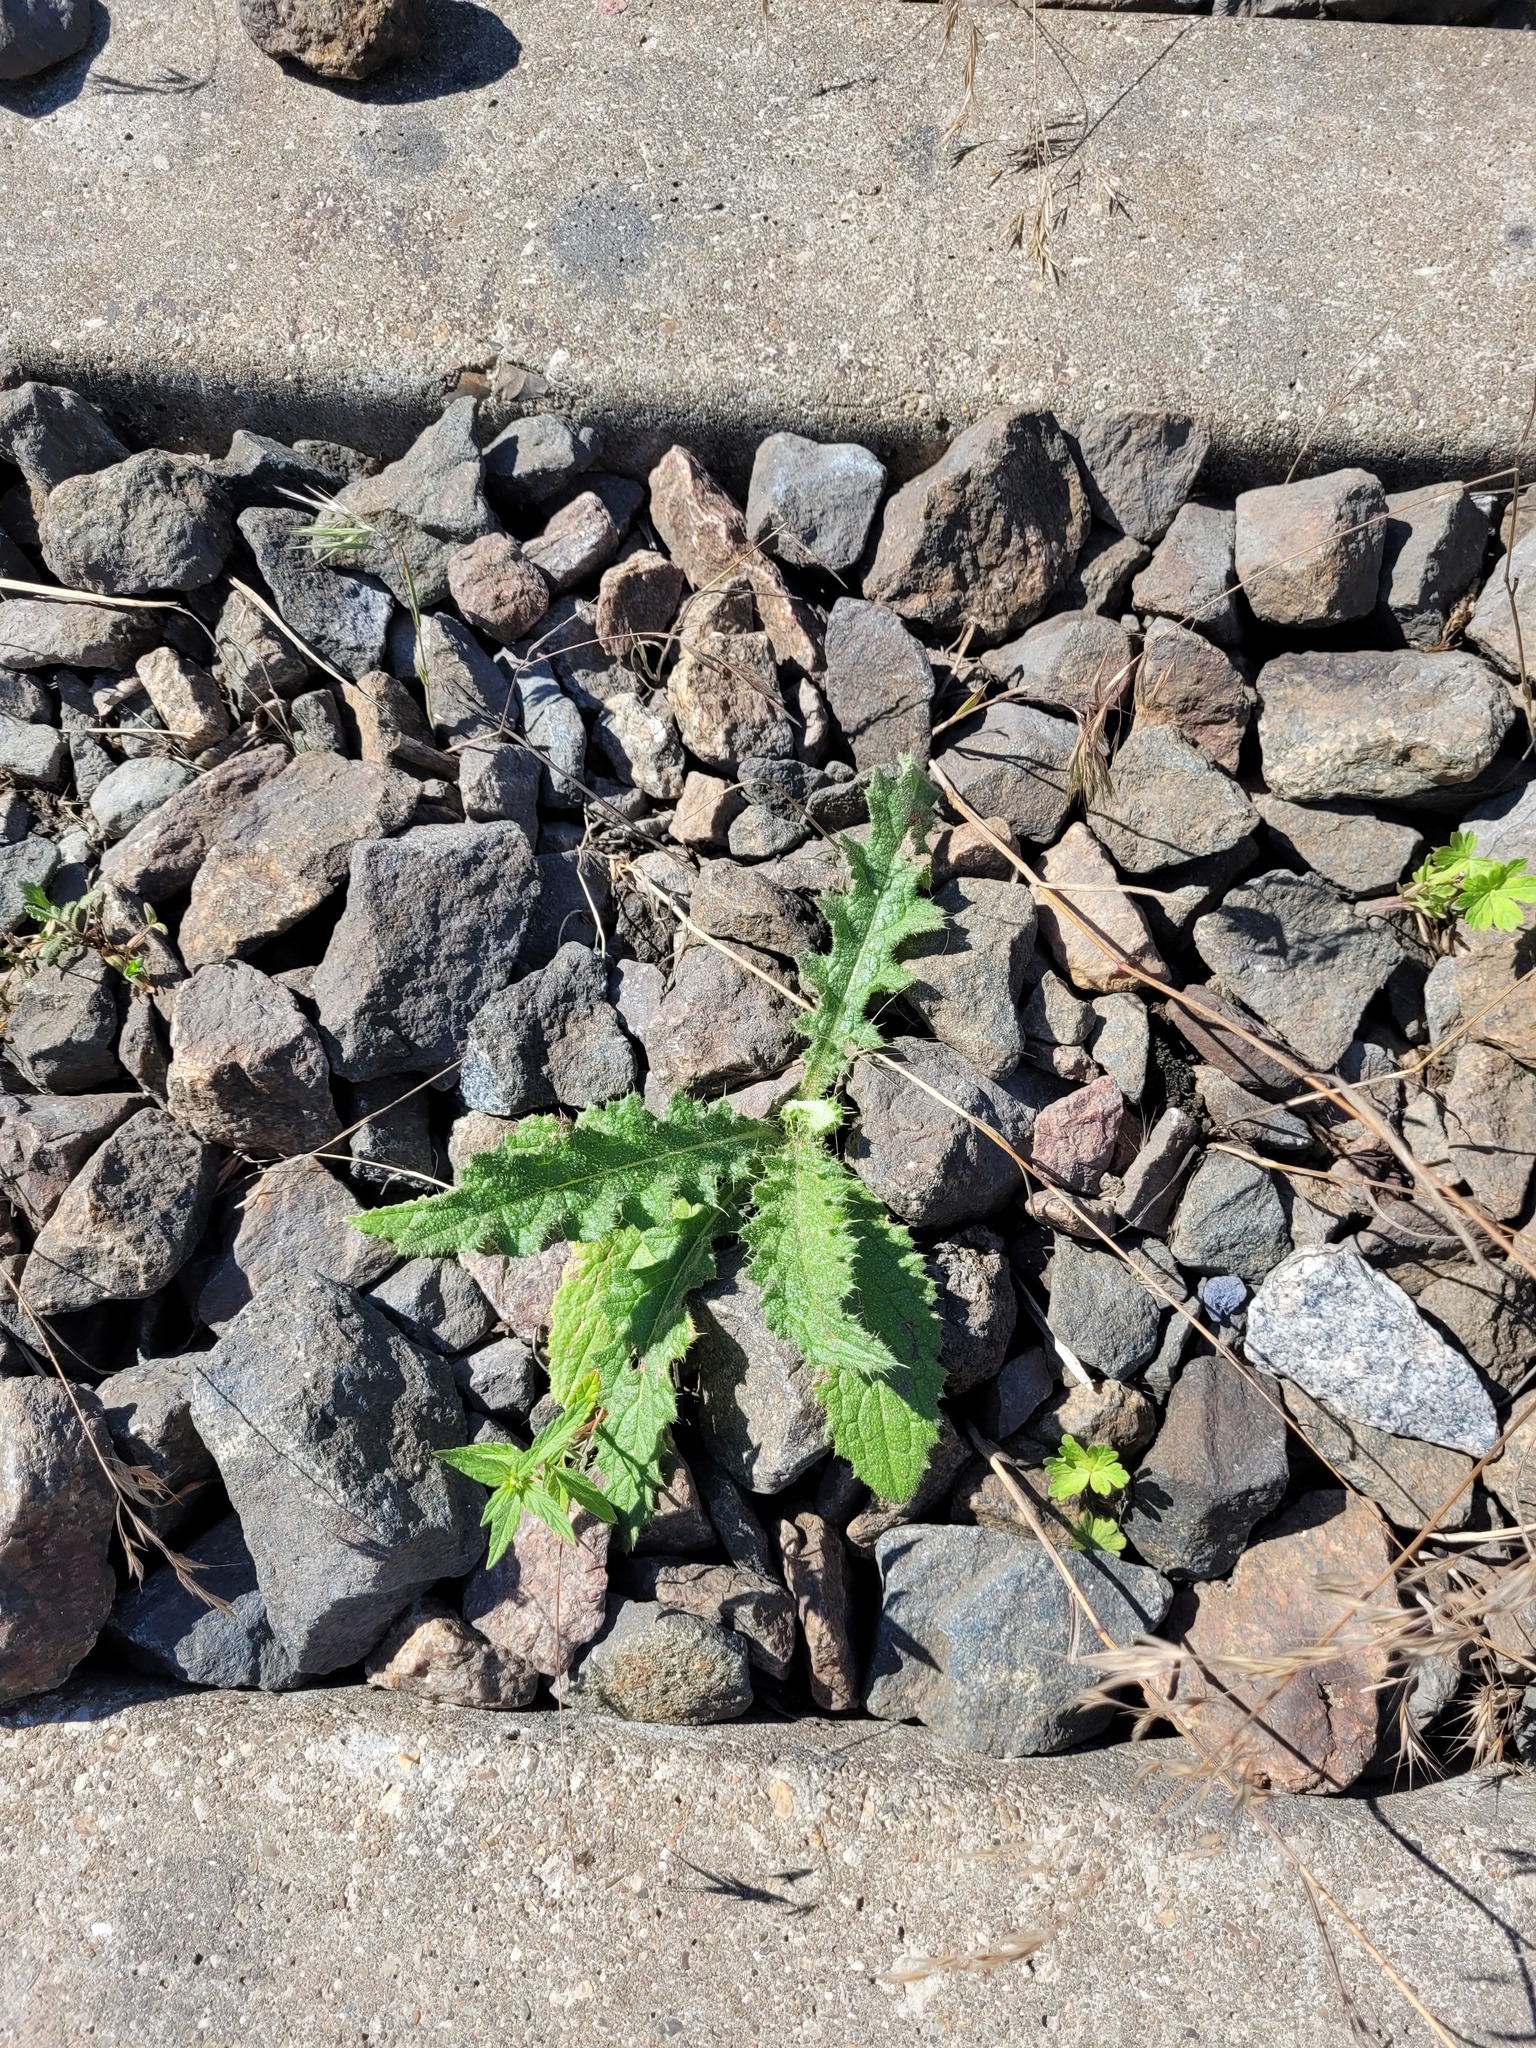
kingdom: Plantae
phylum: Tracheophyta
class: Magnoliopsida
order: Asterales
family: Asteraceae
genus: Cirsium
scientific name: Cirsium vulgare
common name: Bull thistle
